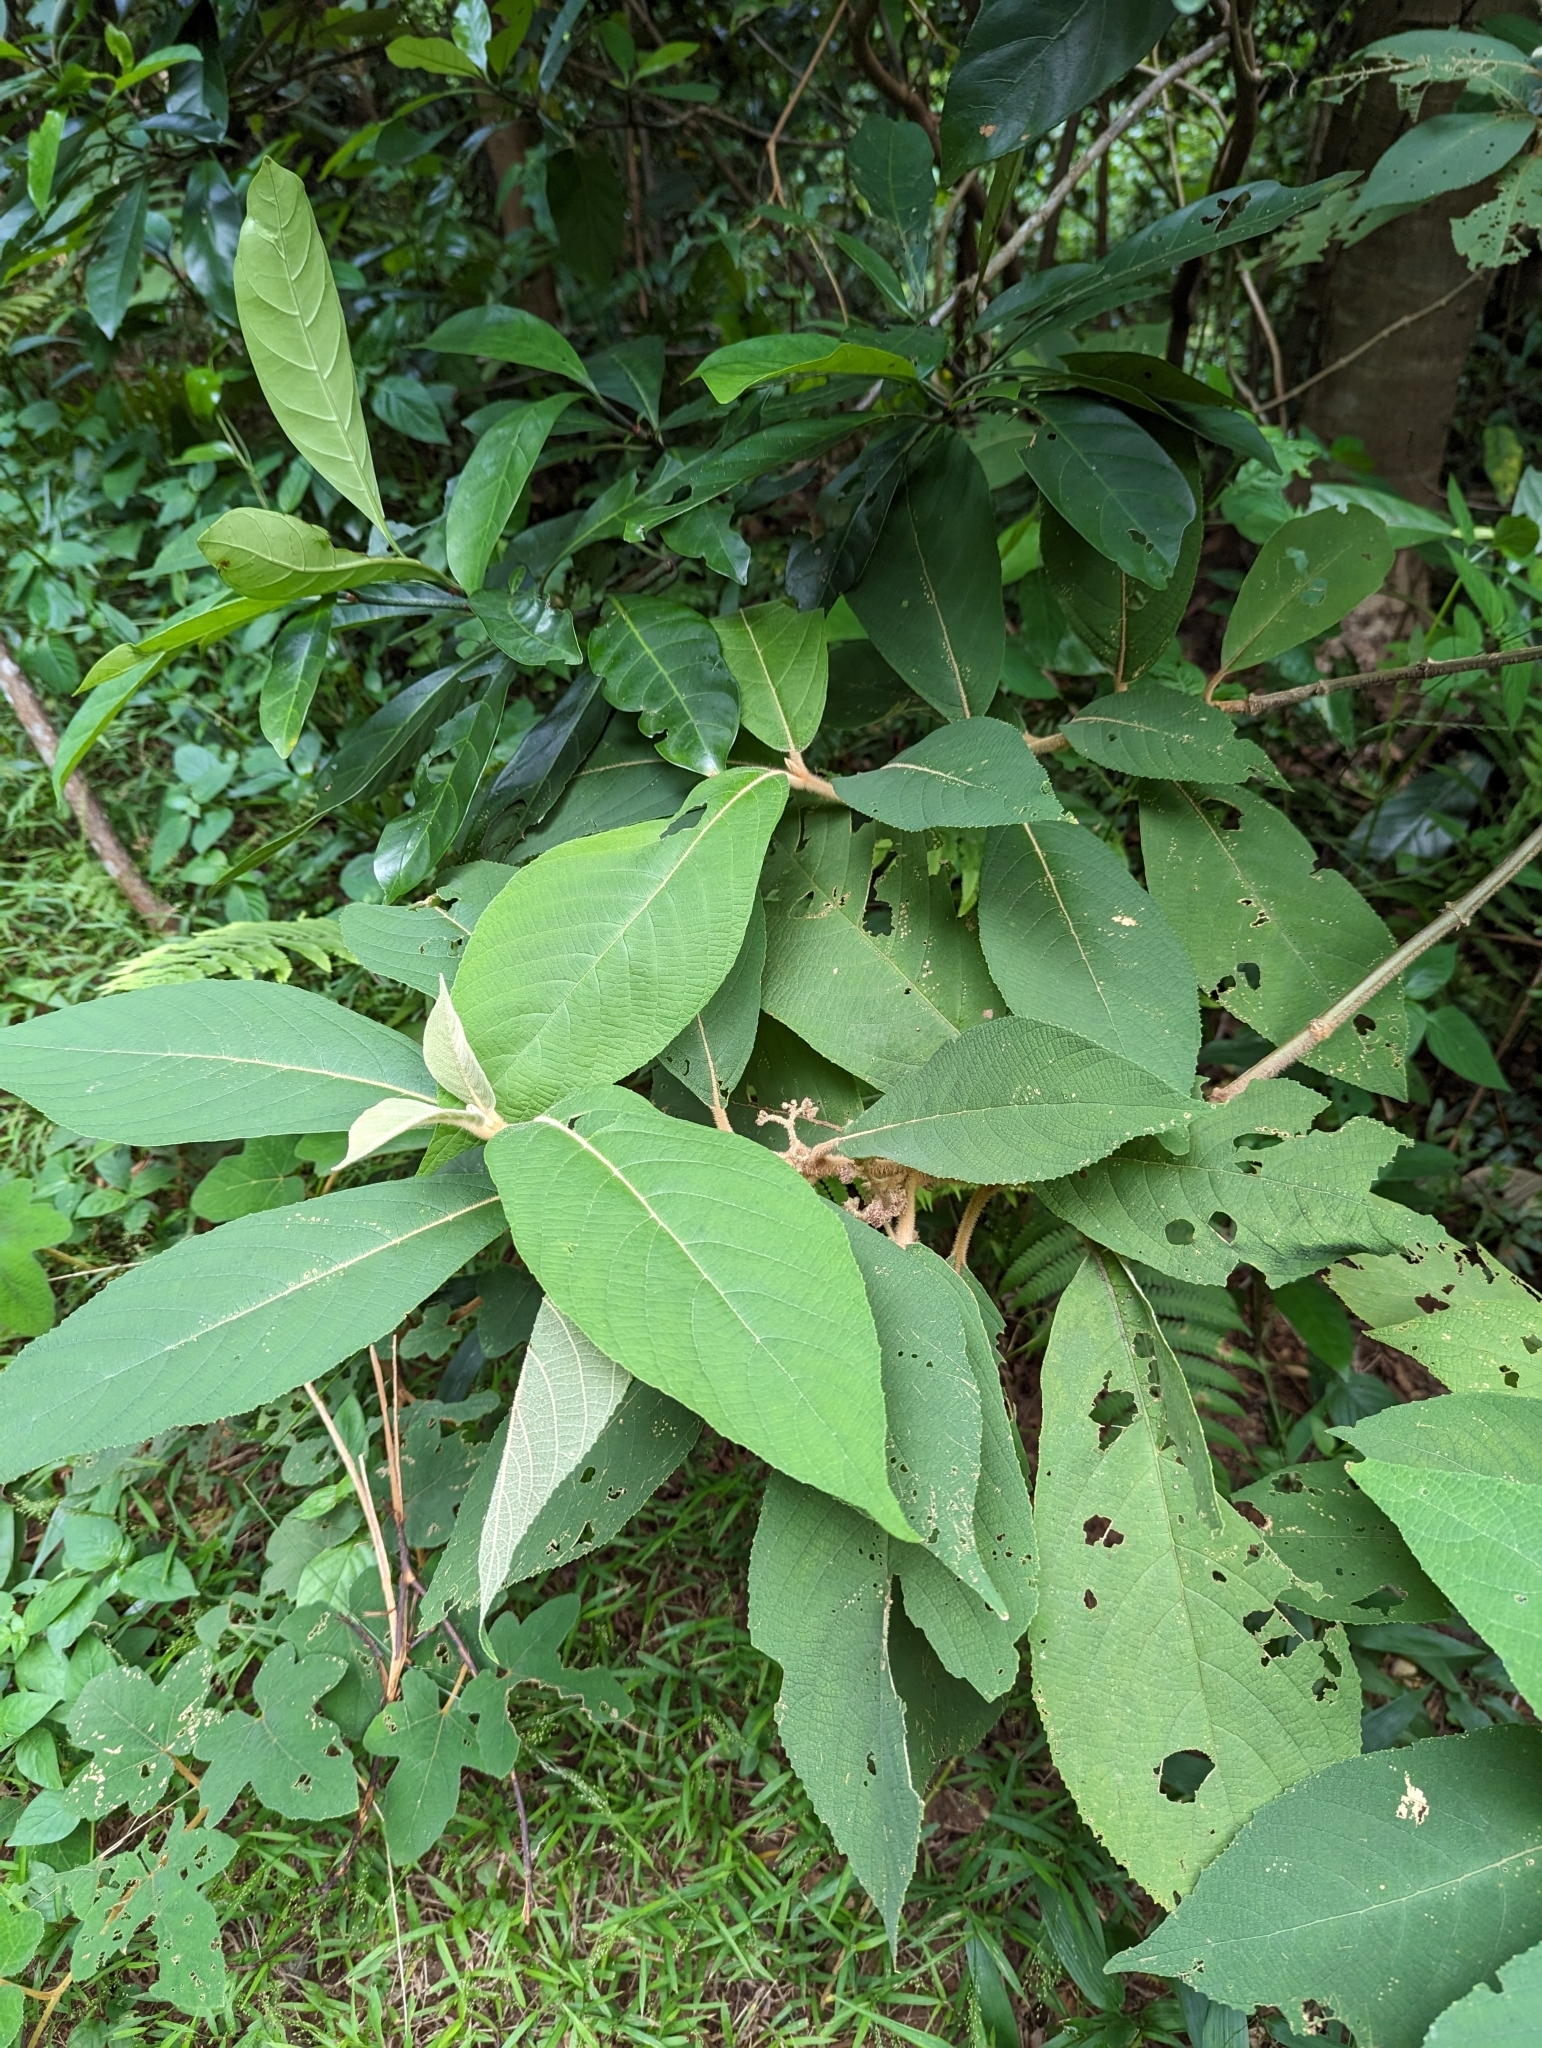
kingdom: Plantae
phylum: Tracheophyta
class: Magnoliopsida
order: Lamiales
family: Lamiaceae
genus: Callicarpa
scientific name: Callicarpa kochiana
